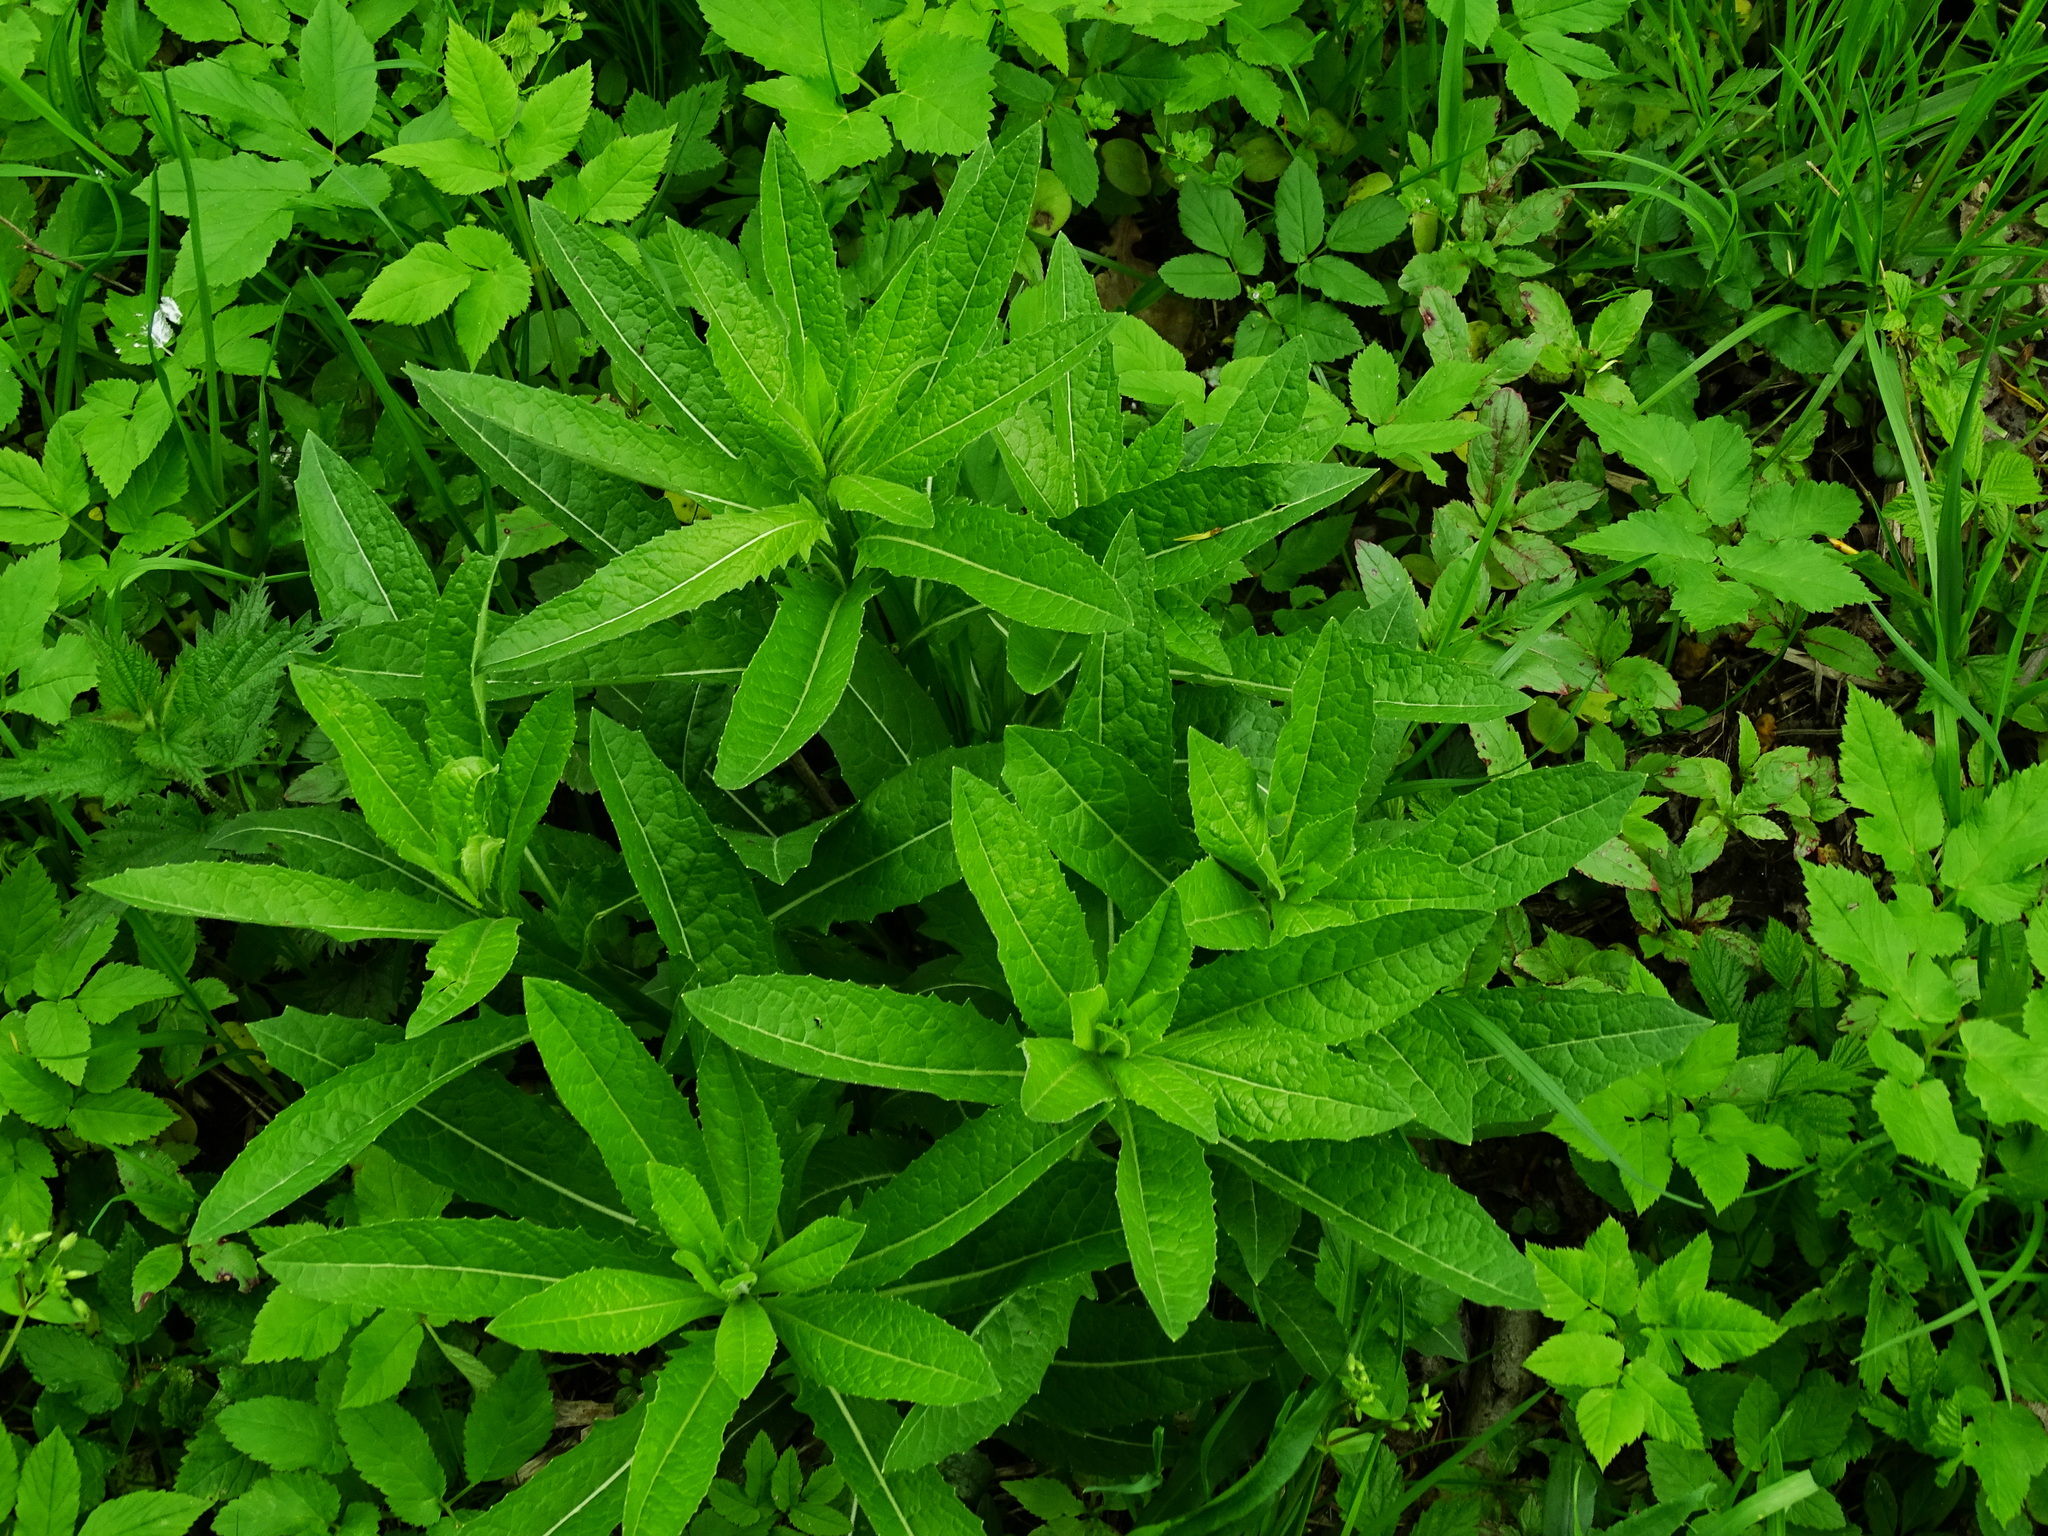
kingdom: Plantae
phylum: Tracheophyta
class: Magnoliopsida
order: Brassicales
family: Brassicaceae
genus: Sisymbrium
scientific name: Sisymbrium strictissimum
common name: Perennial rocket
